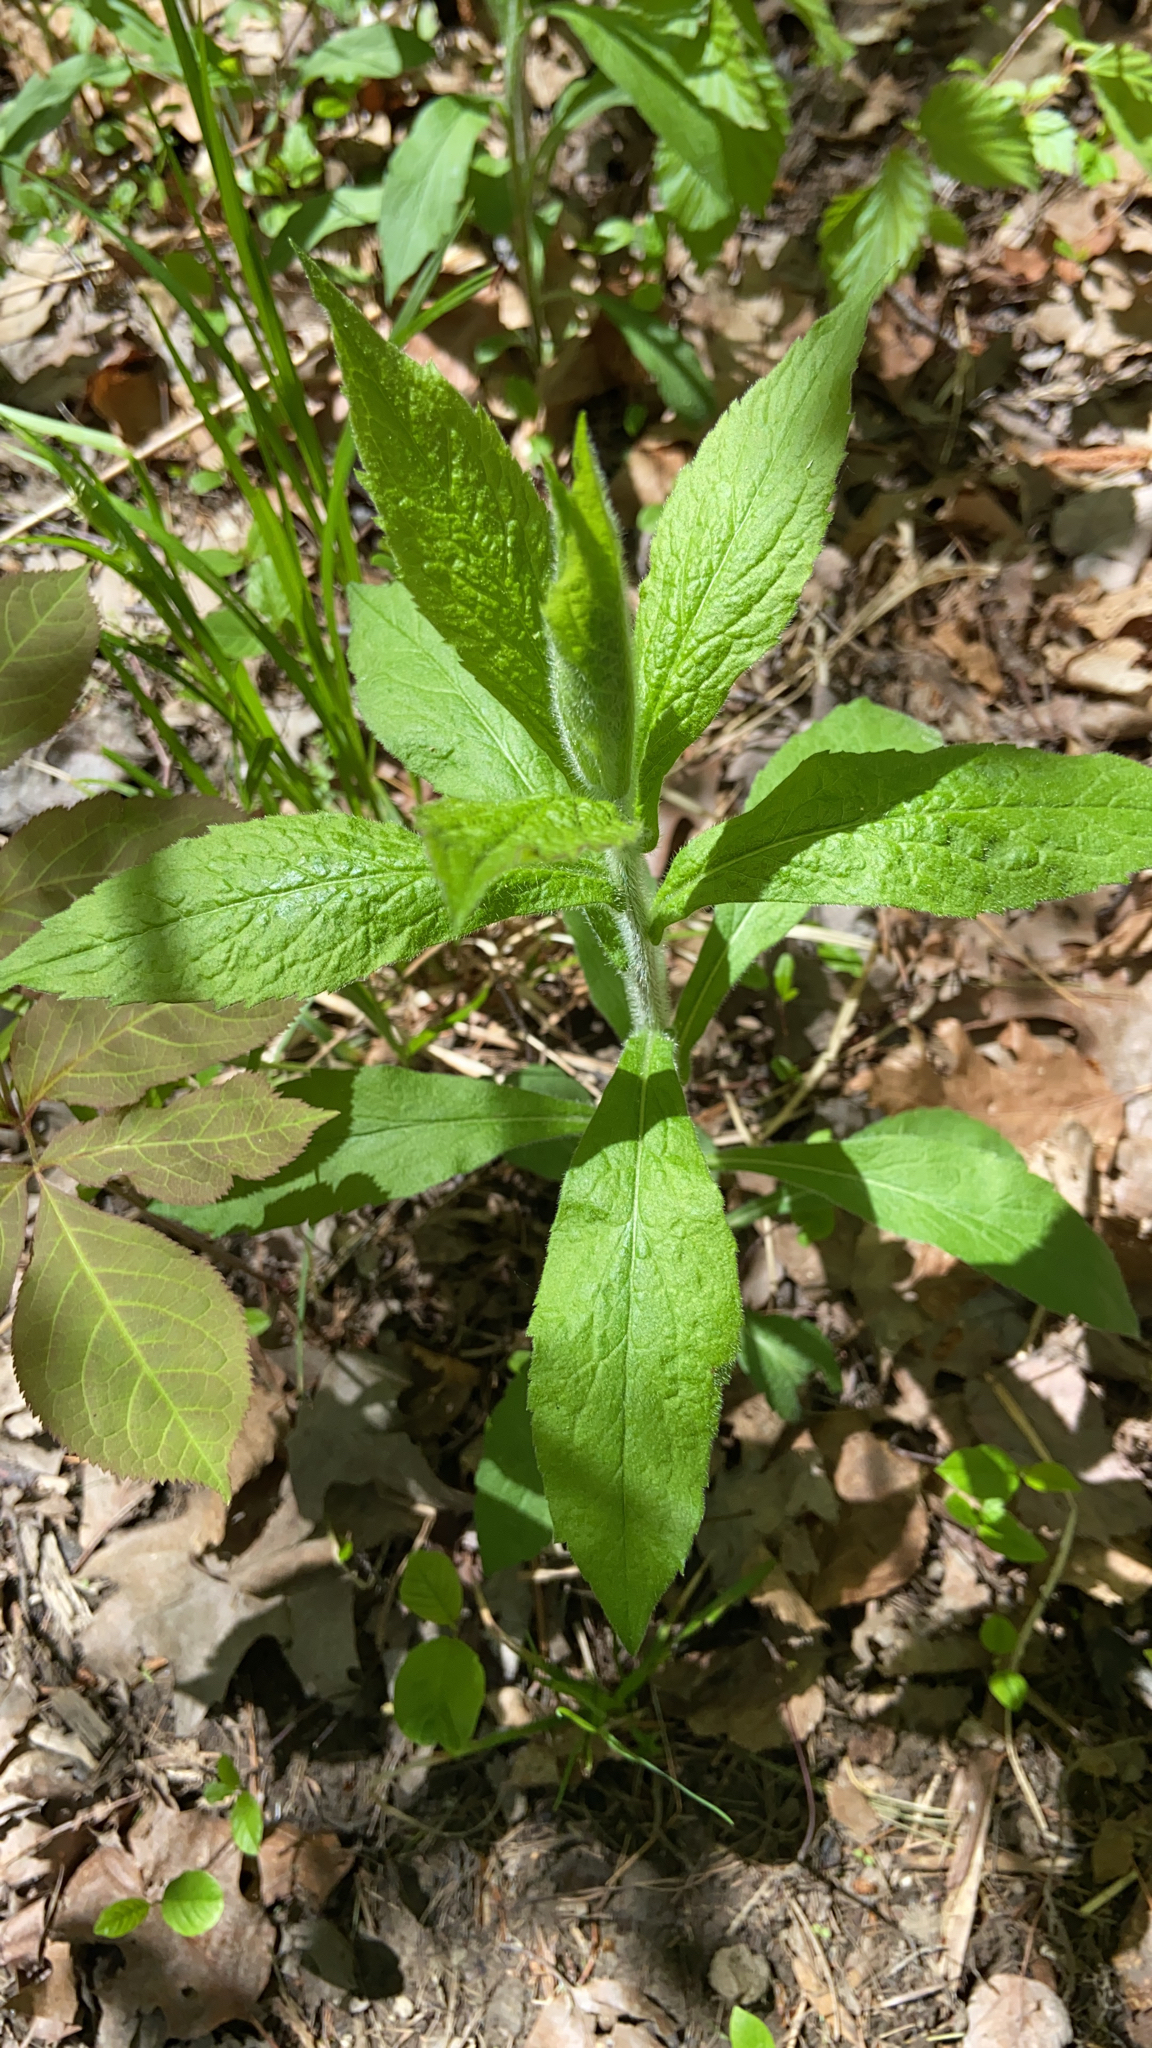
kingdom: Plantae
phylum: Tracheophyta
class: Magnoliopsida
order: Asterales
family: Asteraceae
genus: Solidago
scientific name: Solidago rugosa
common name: Rough-stemmed goldenrod
